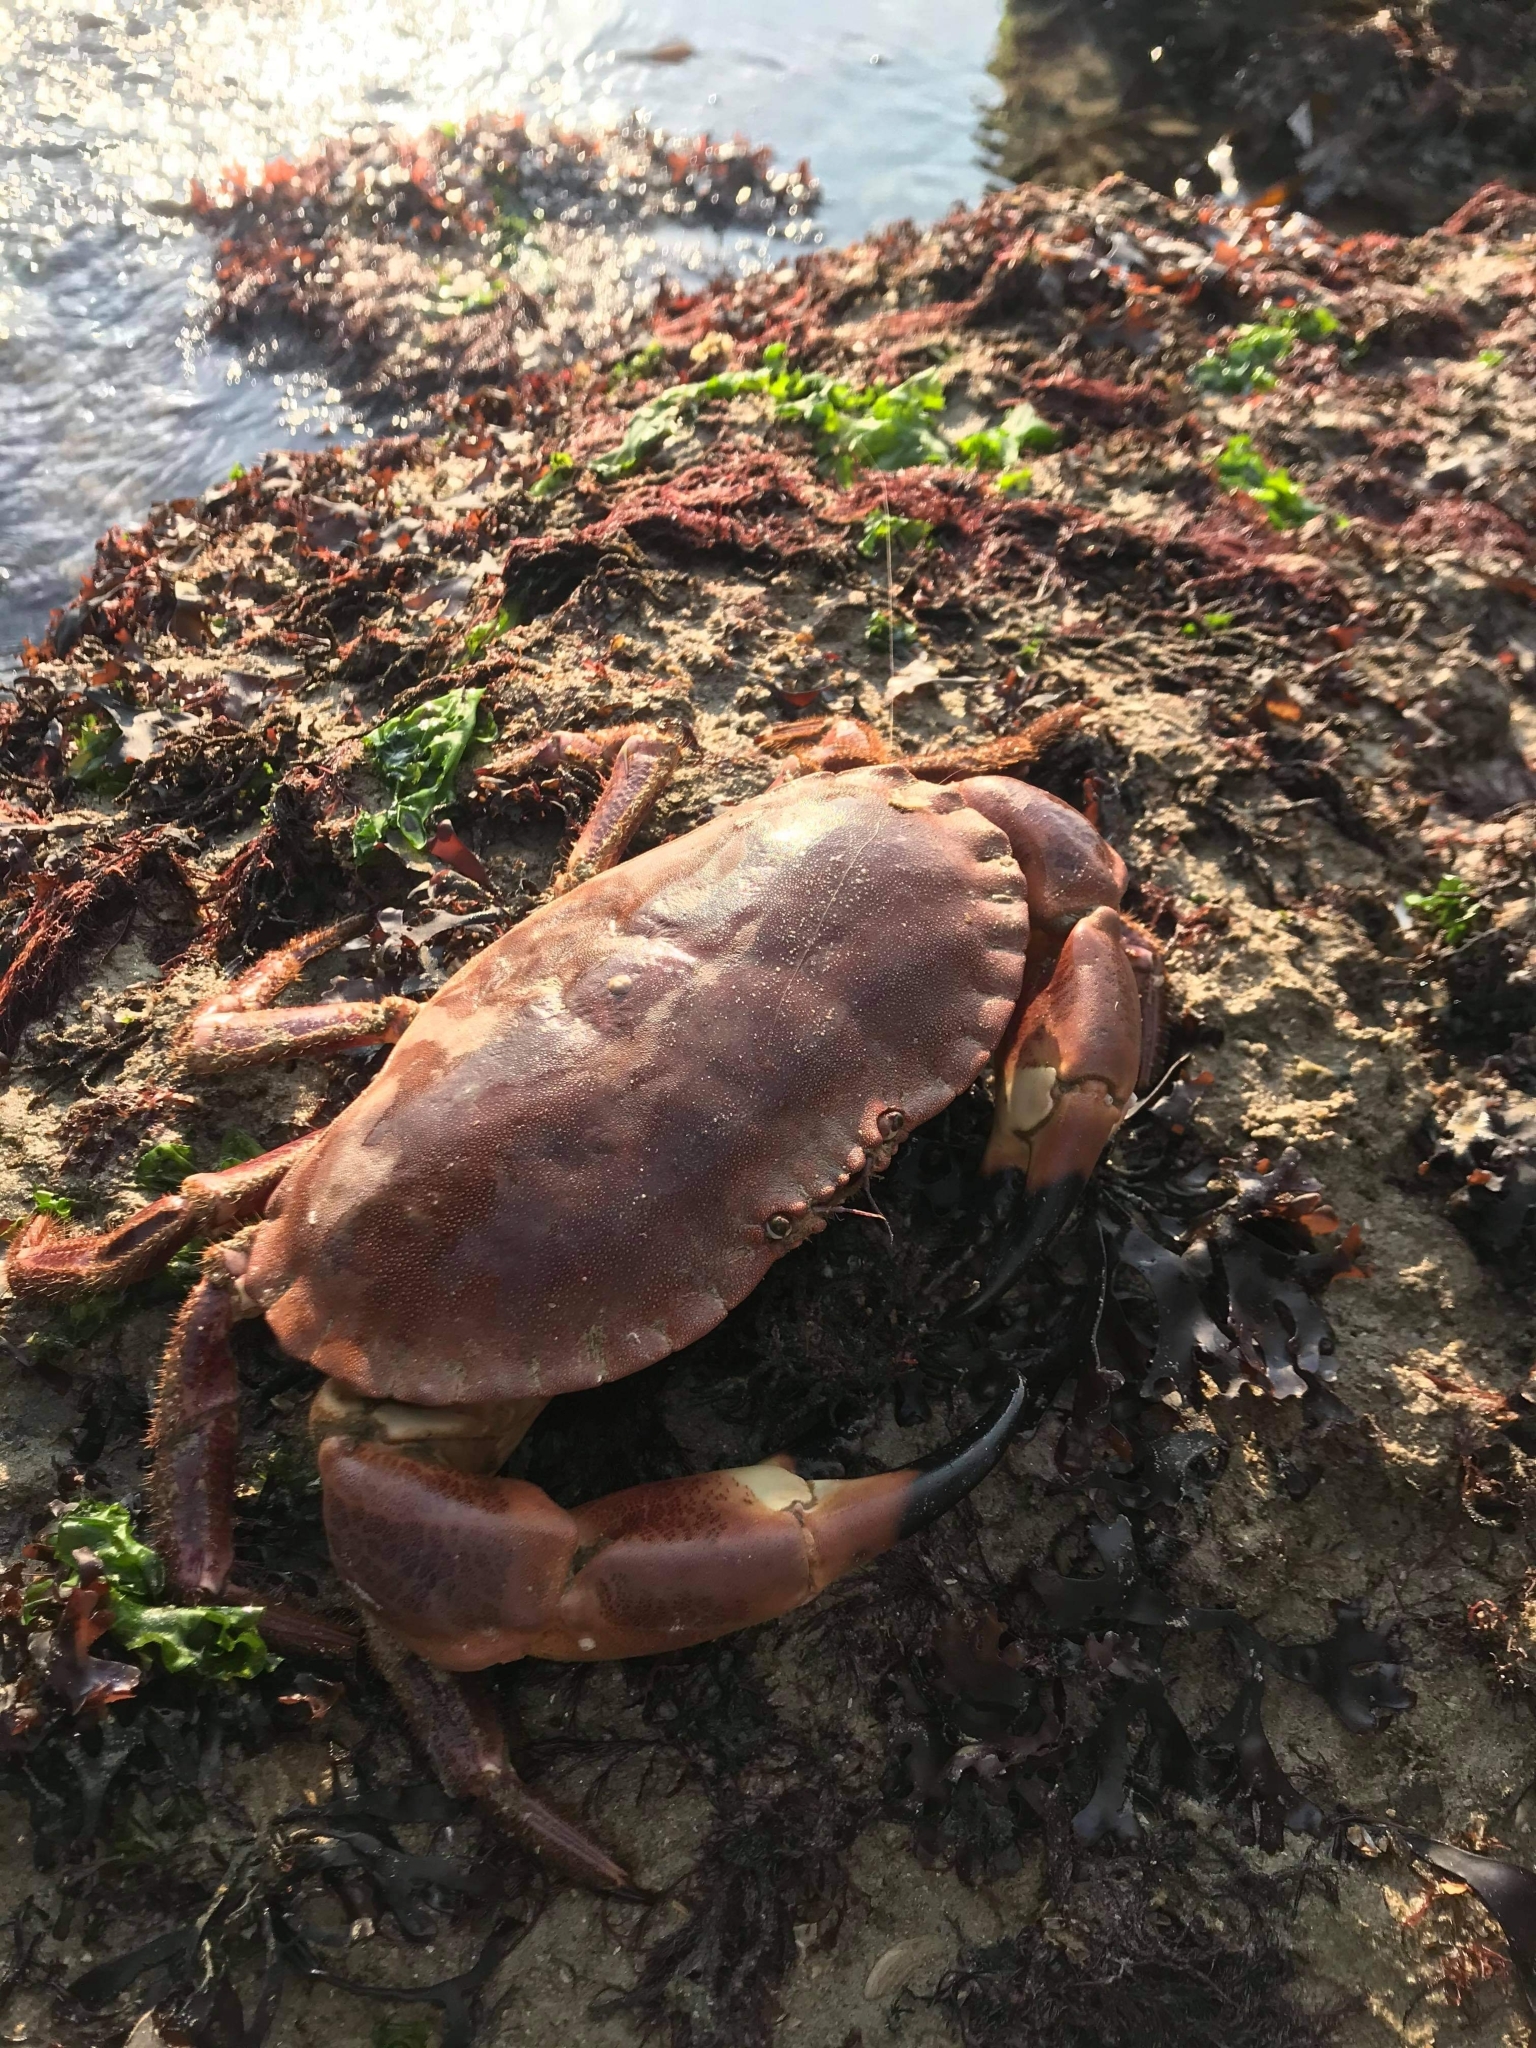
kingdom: Animalia
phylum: Arthropoda
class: Malacostraca
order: Decapoda
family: Cancridae
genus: Cancer
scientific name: Cancer pagurus
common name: Edible crab
